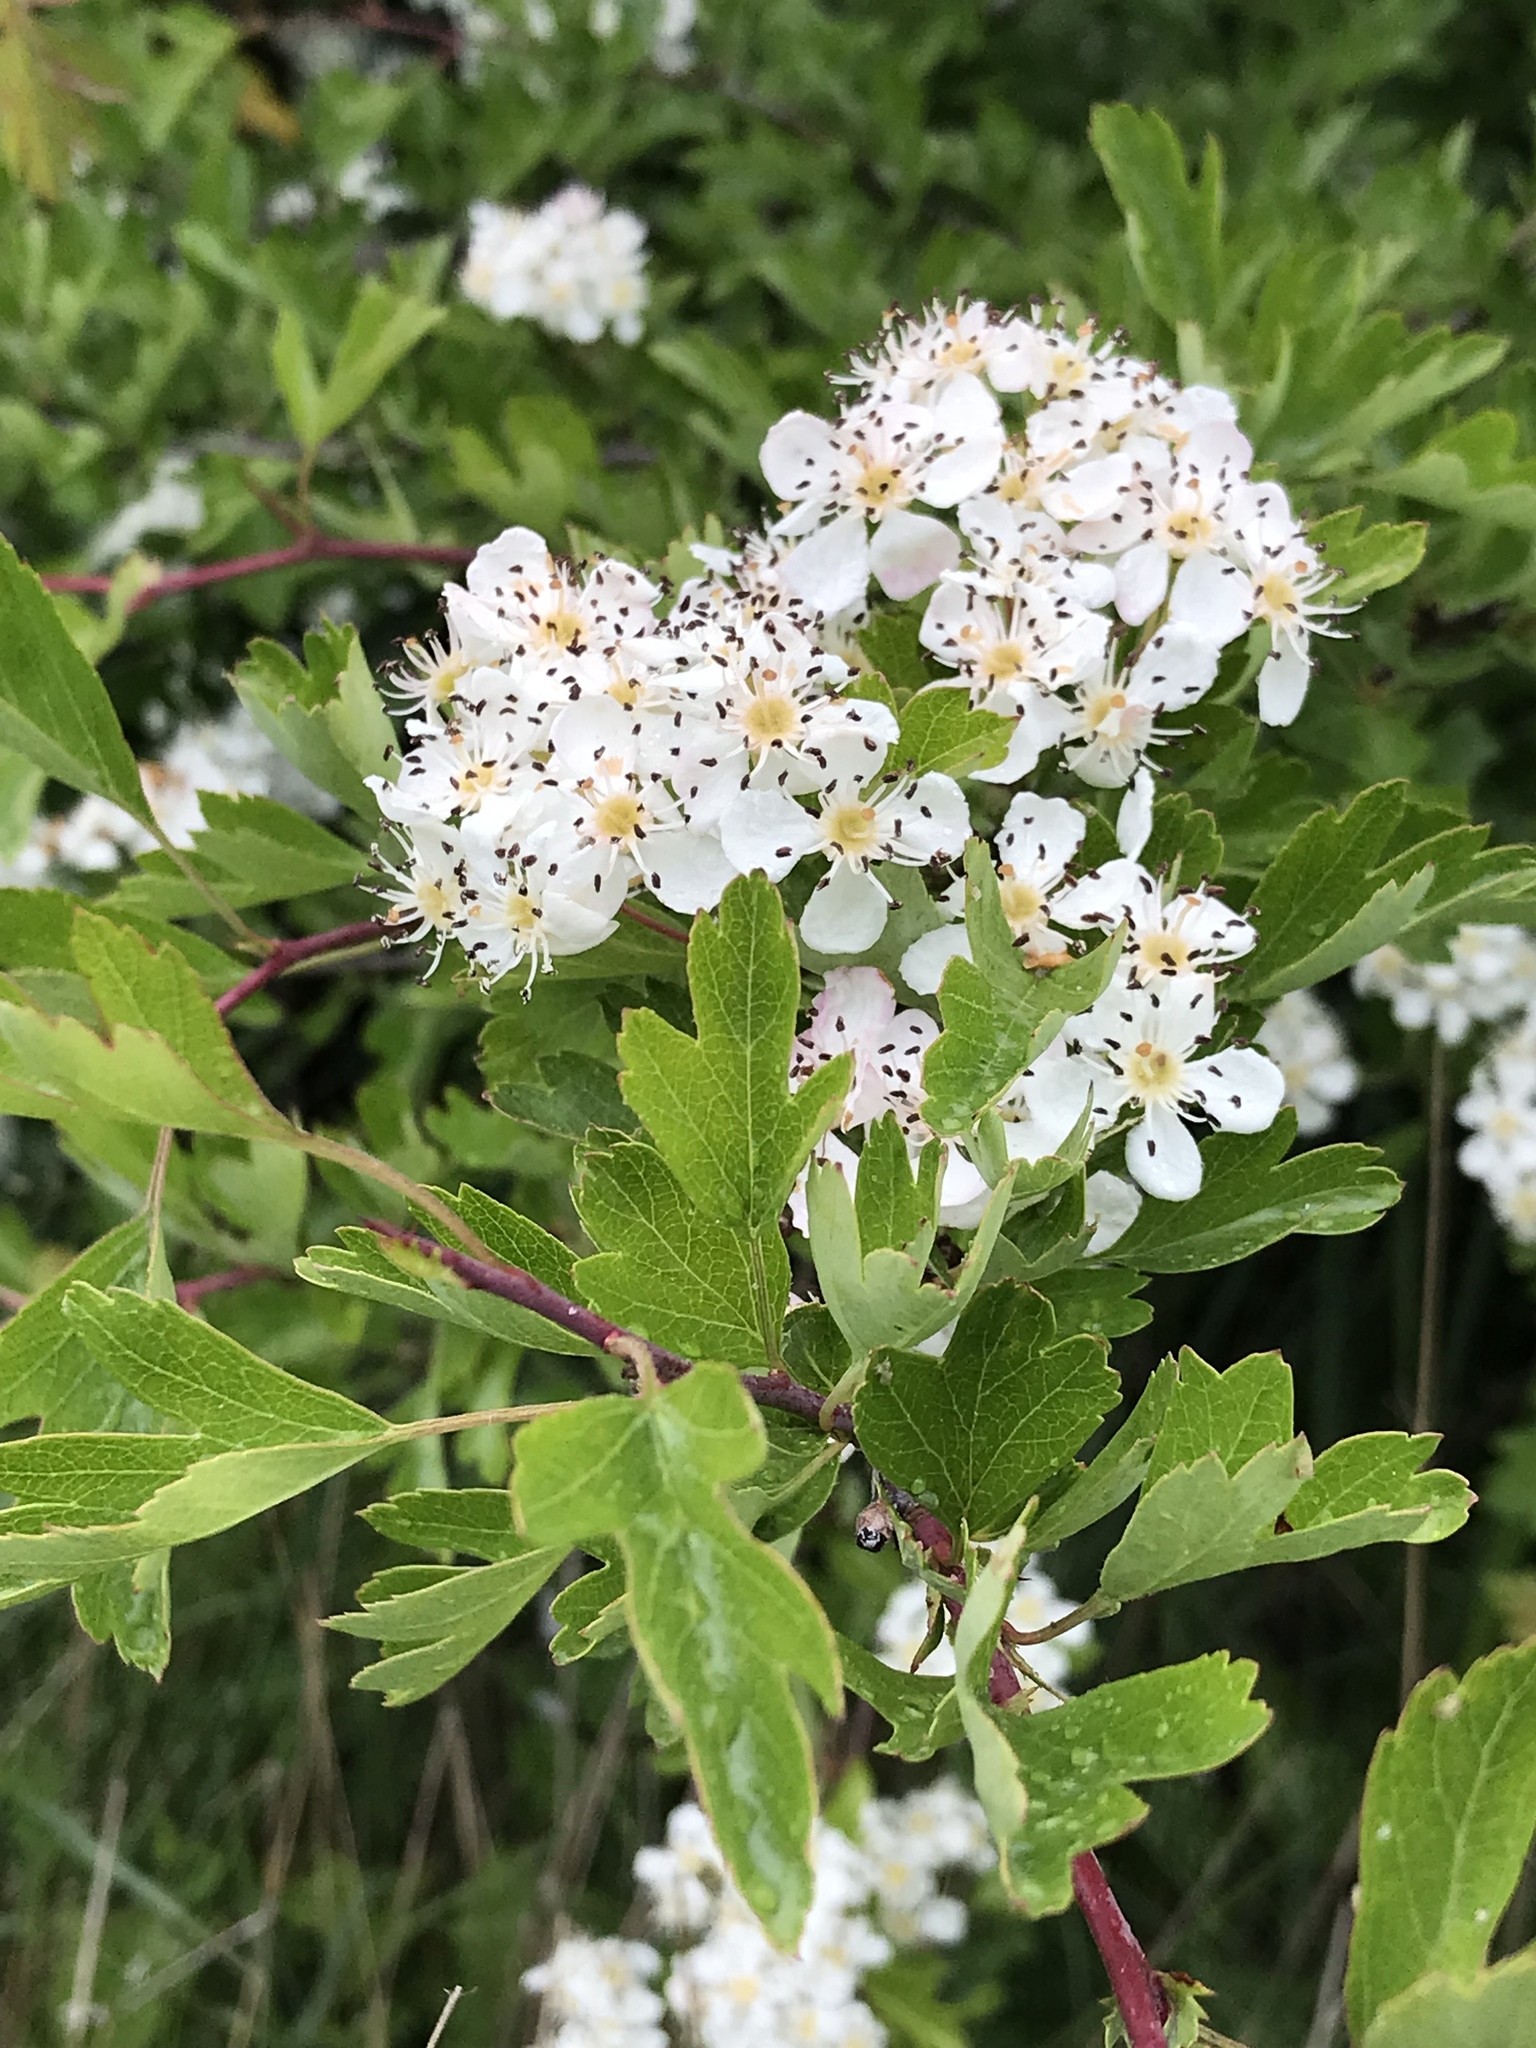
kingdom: Plantae
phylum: Tracheophyta
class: Magnoliopsida
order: Rosales
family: Rosaceae
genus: Crataegus
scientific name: Crataegus monogyna
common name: Hawthorn
